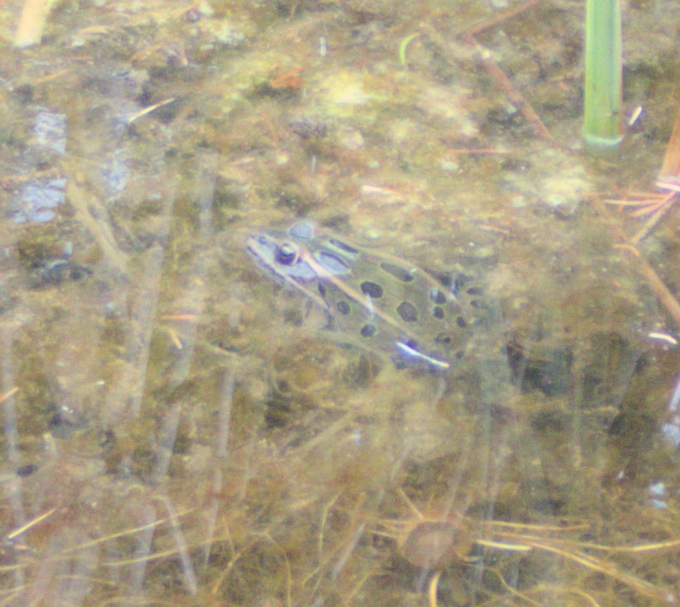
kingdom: Animalia
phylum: Chordata
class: Amphibia
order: Anura
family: Ranidae
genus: Lithobates
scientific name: Lithobates pipiens
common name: Northern leopard frog
